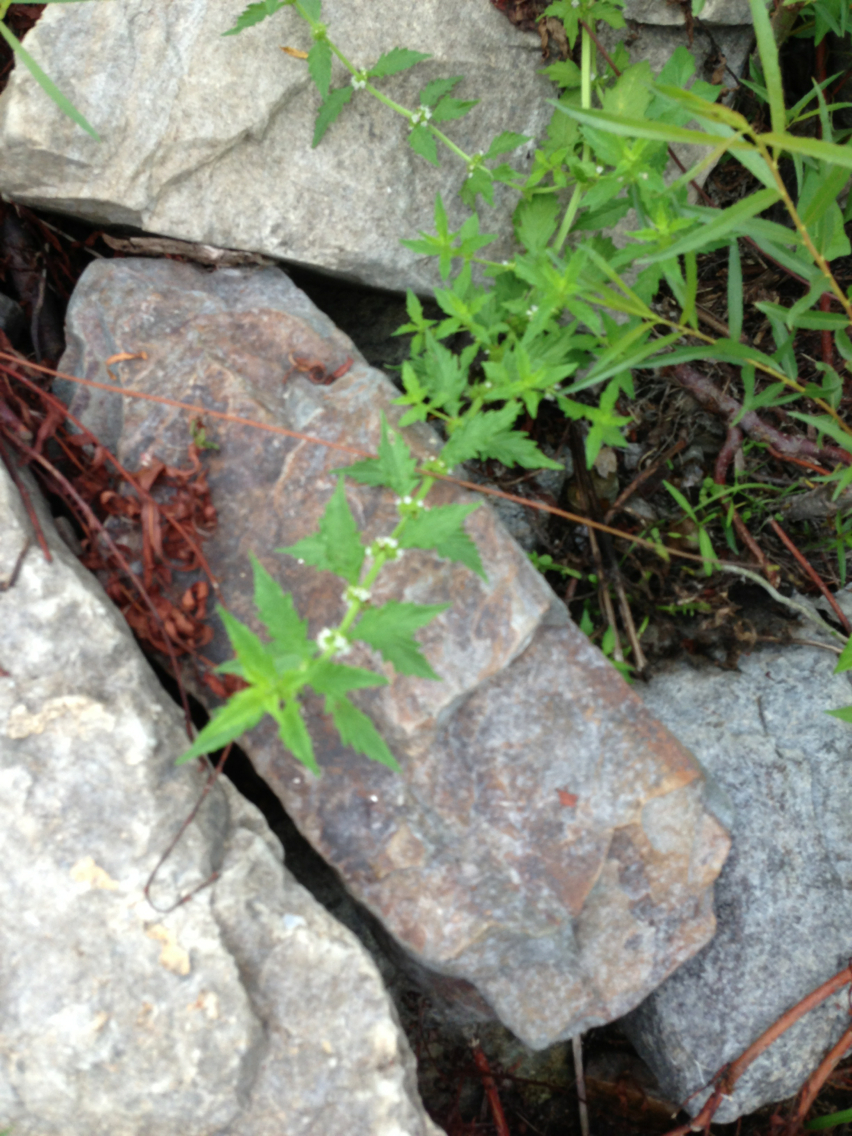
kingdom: Plantae
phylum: Tracheophyta
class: Magnoliopsida
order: Lamiales
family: Lamiaceae
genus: Lycopus
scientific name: Lycopus europaeus
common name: European bugleweed
